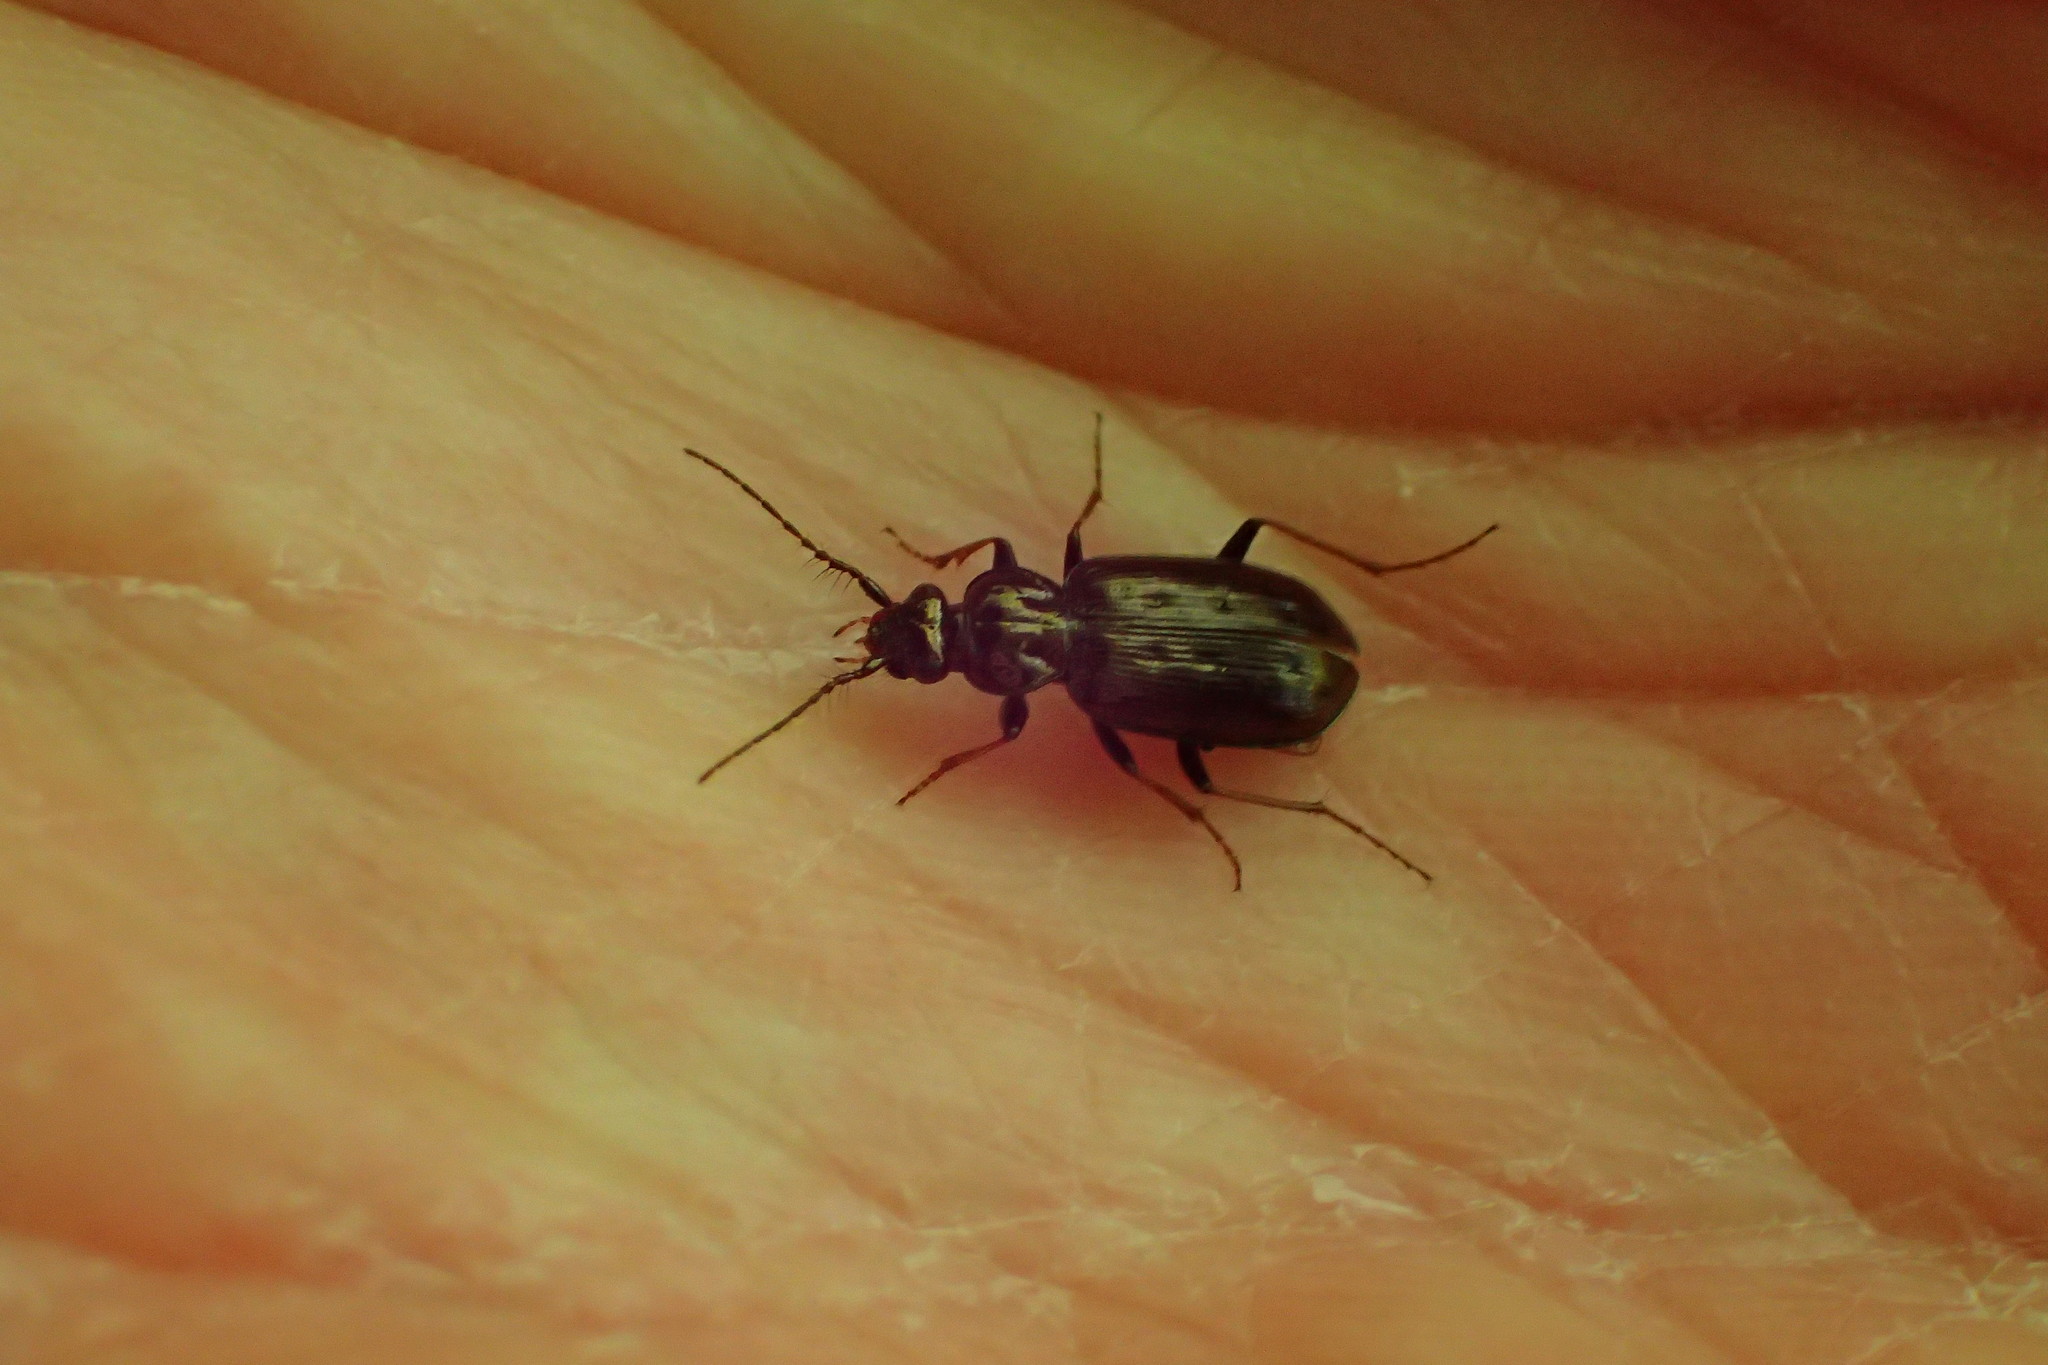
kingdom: Animalia
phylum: Arthropoda
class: Insecta
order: Coleoptera
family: Carabidae
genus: Loricera
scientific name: Loricera pilicornis
